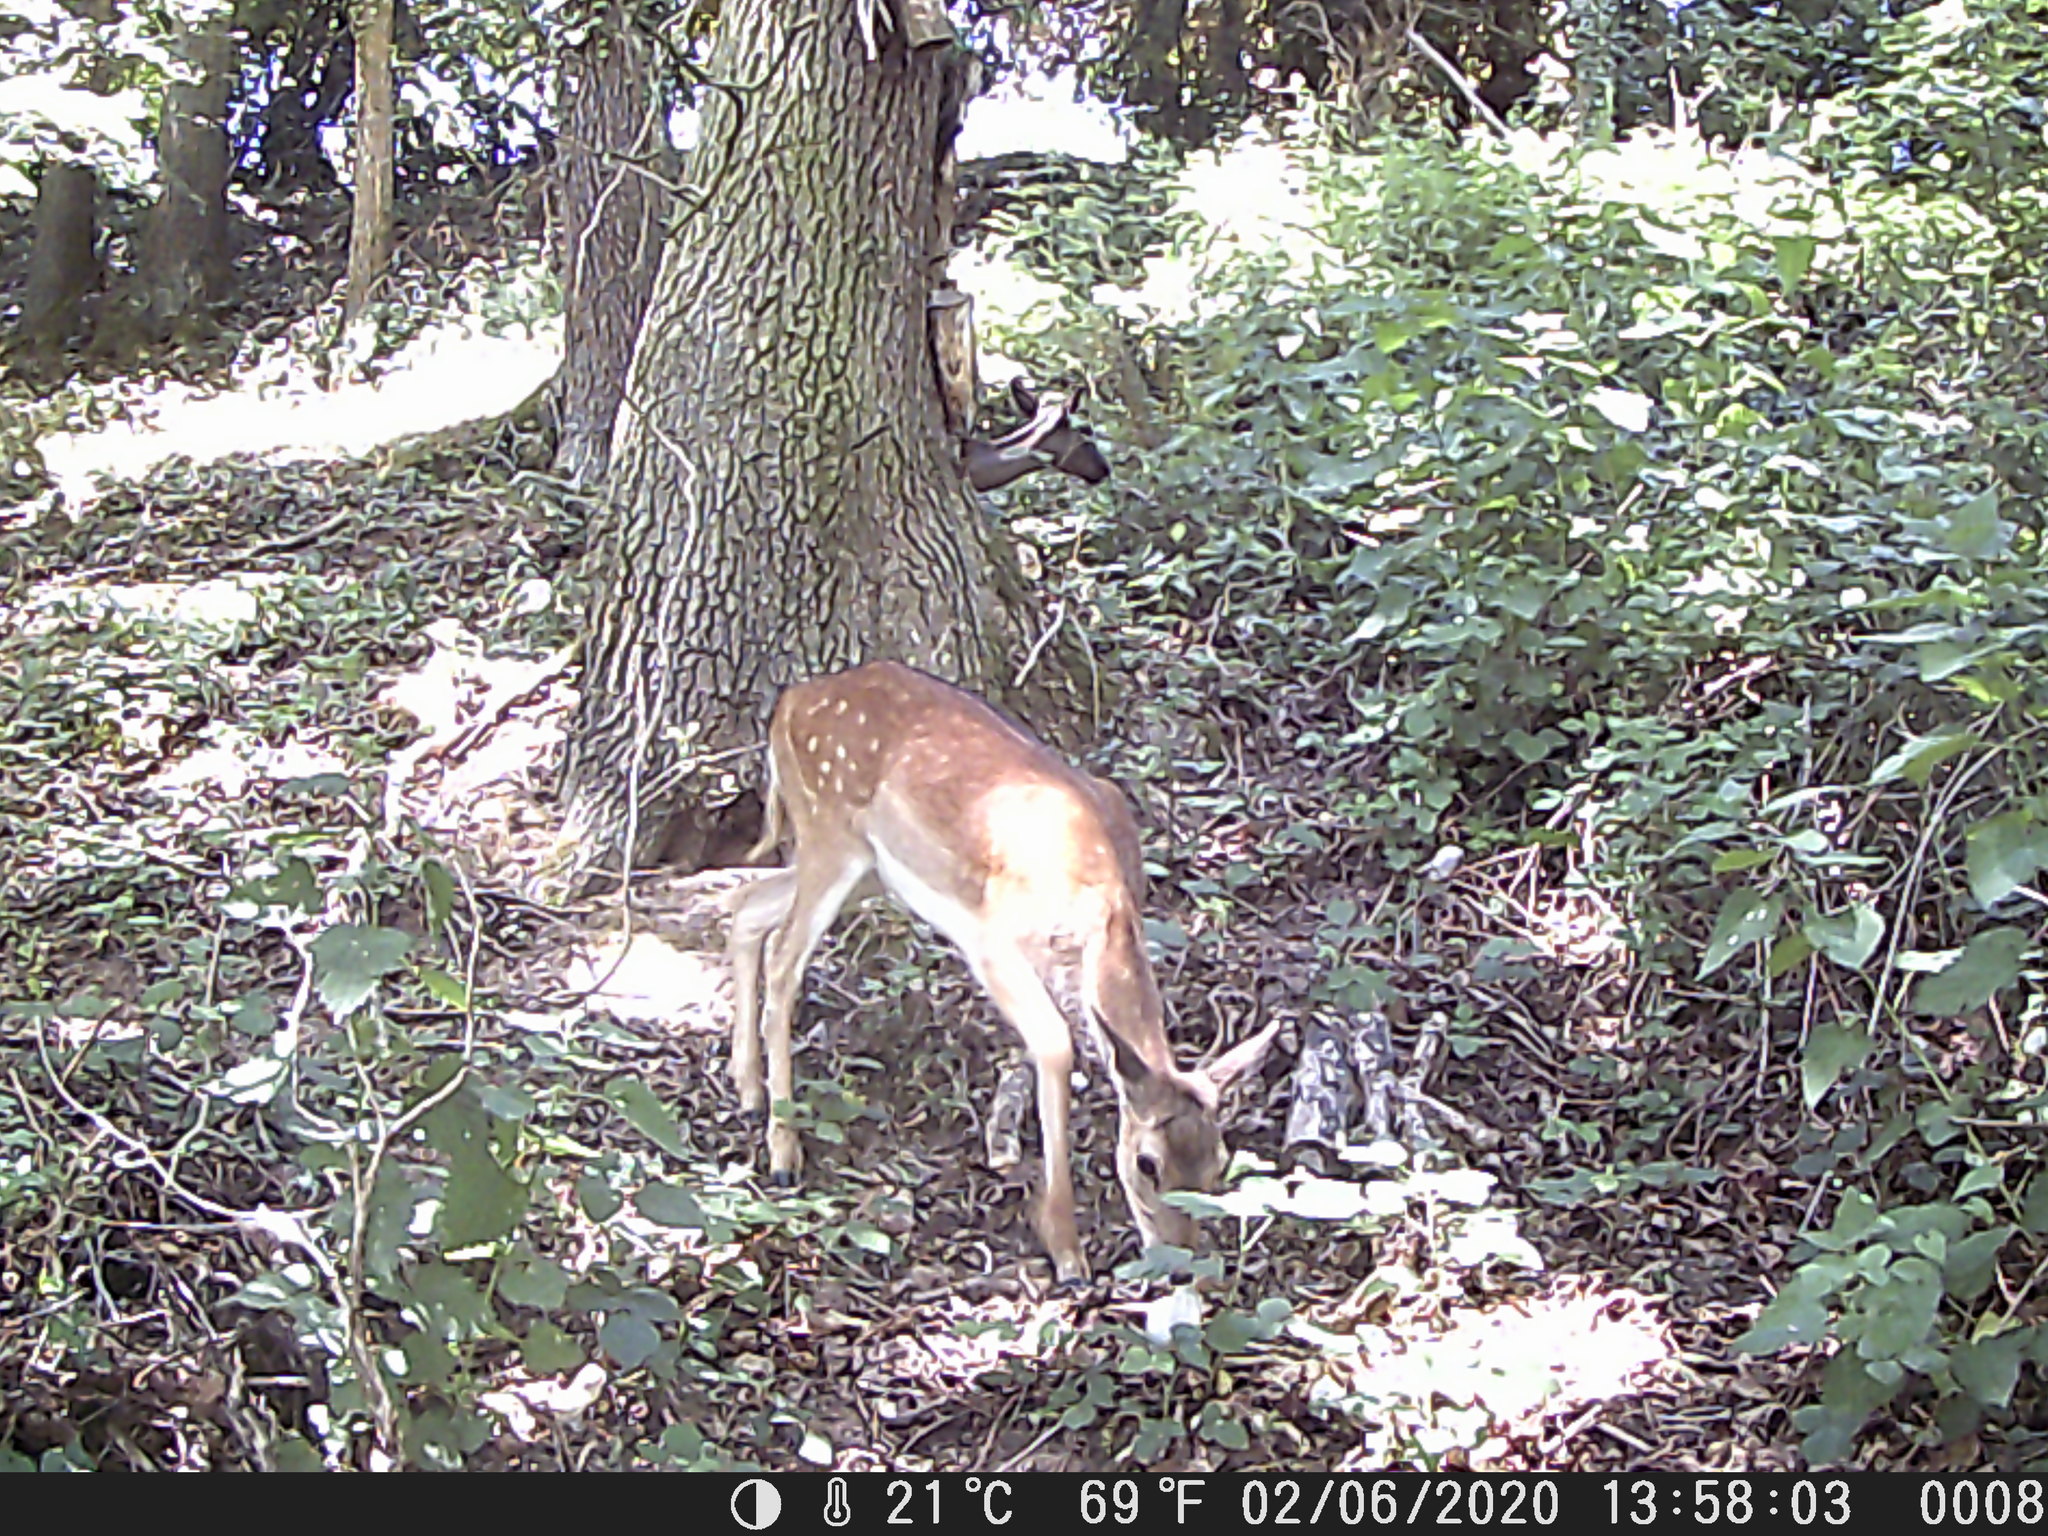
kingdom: Animalia
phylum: Chordata
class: Mammalia
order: Artiodactyla
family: Cervidae
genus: Dama
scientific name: Dama dama
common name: Fallow deer
